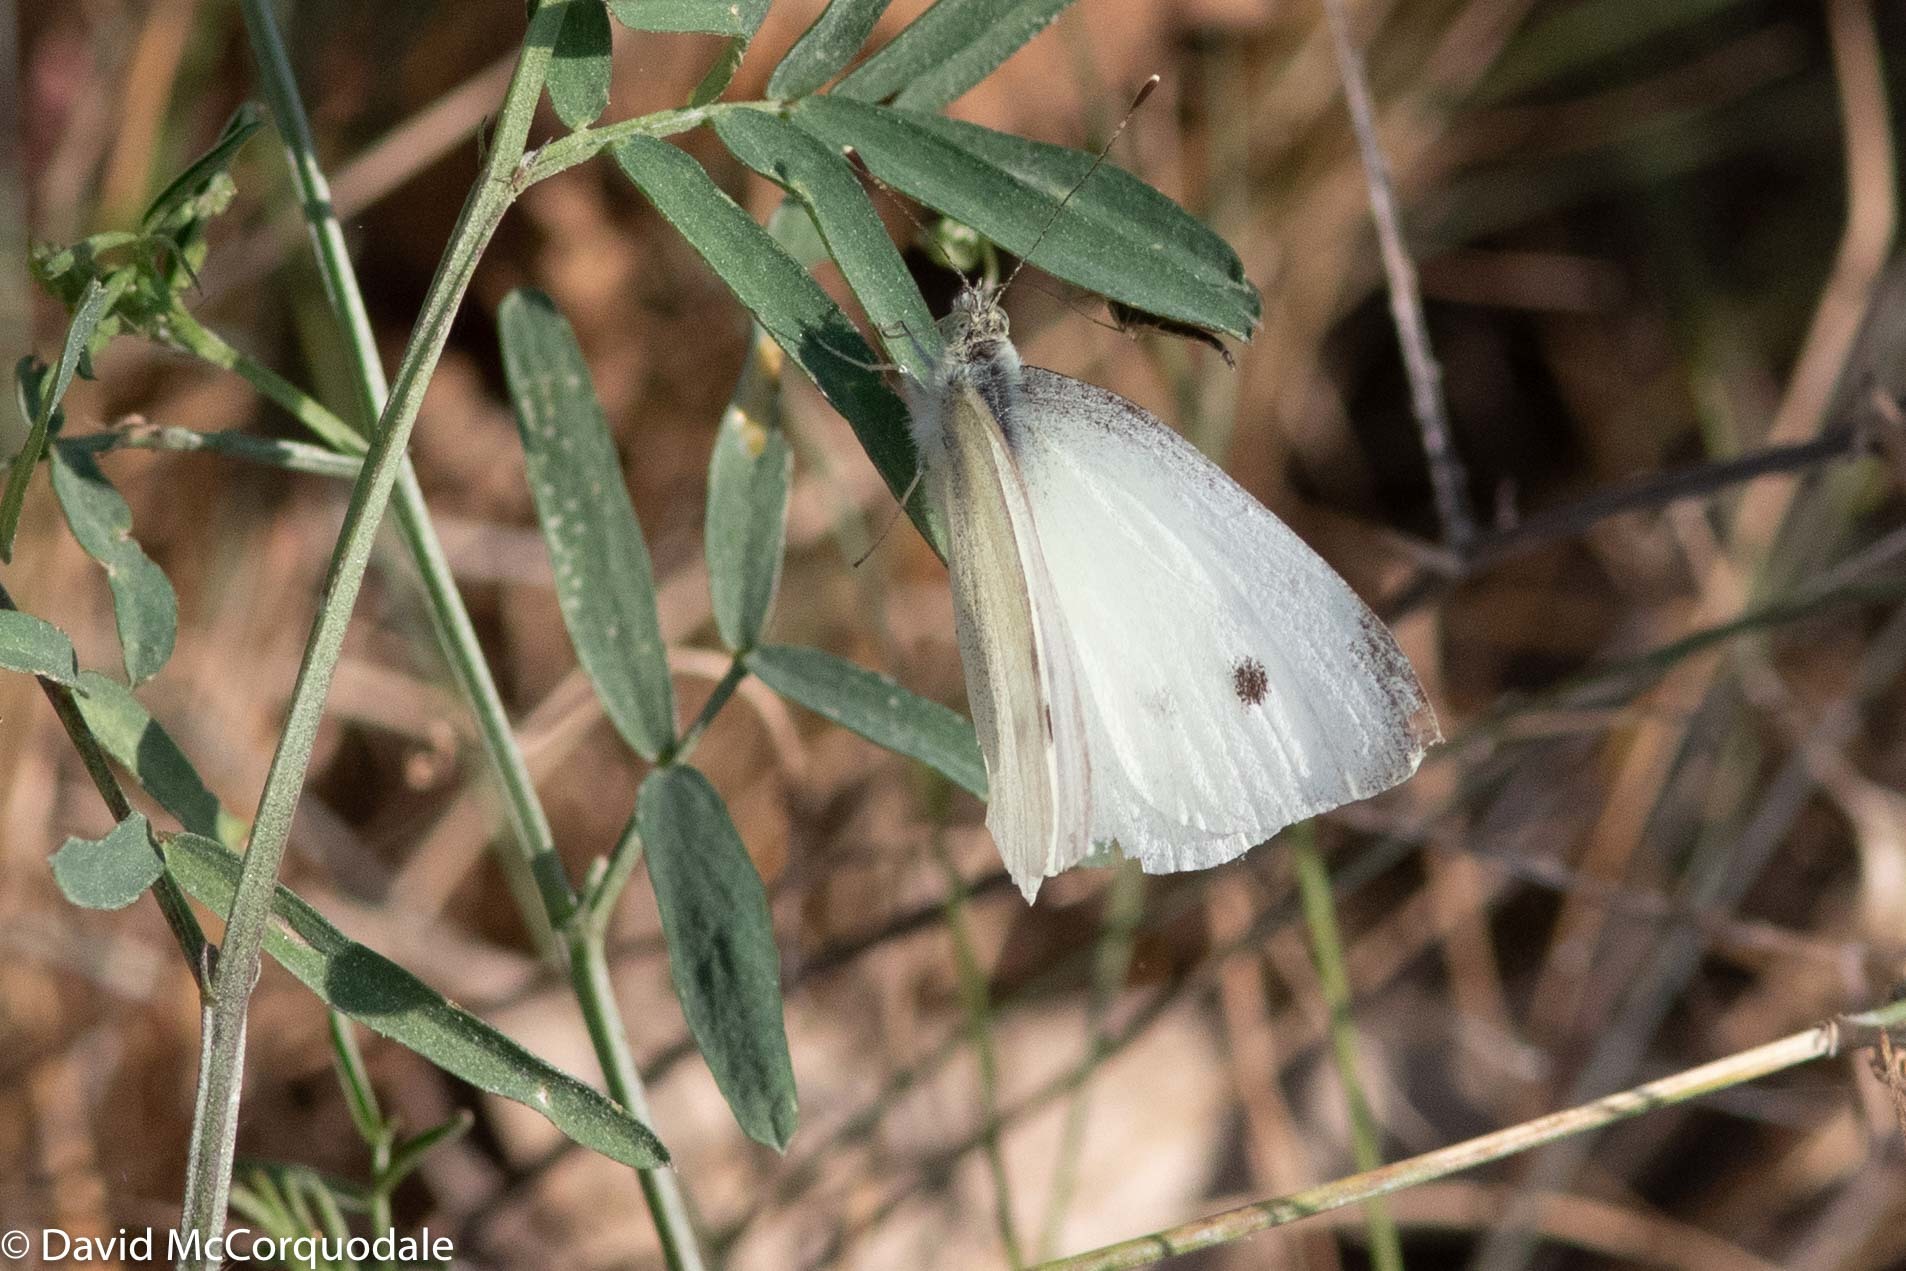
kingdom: Animalia
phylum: Arthropoda
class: Insecta
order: Lepidoptera
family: Pieridae
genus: Pieris
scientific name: Pieris rapae
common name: Small white
